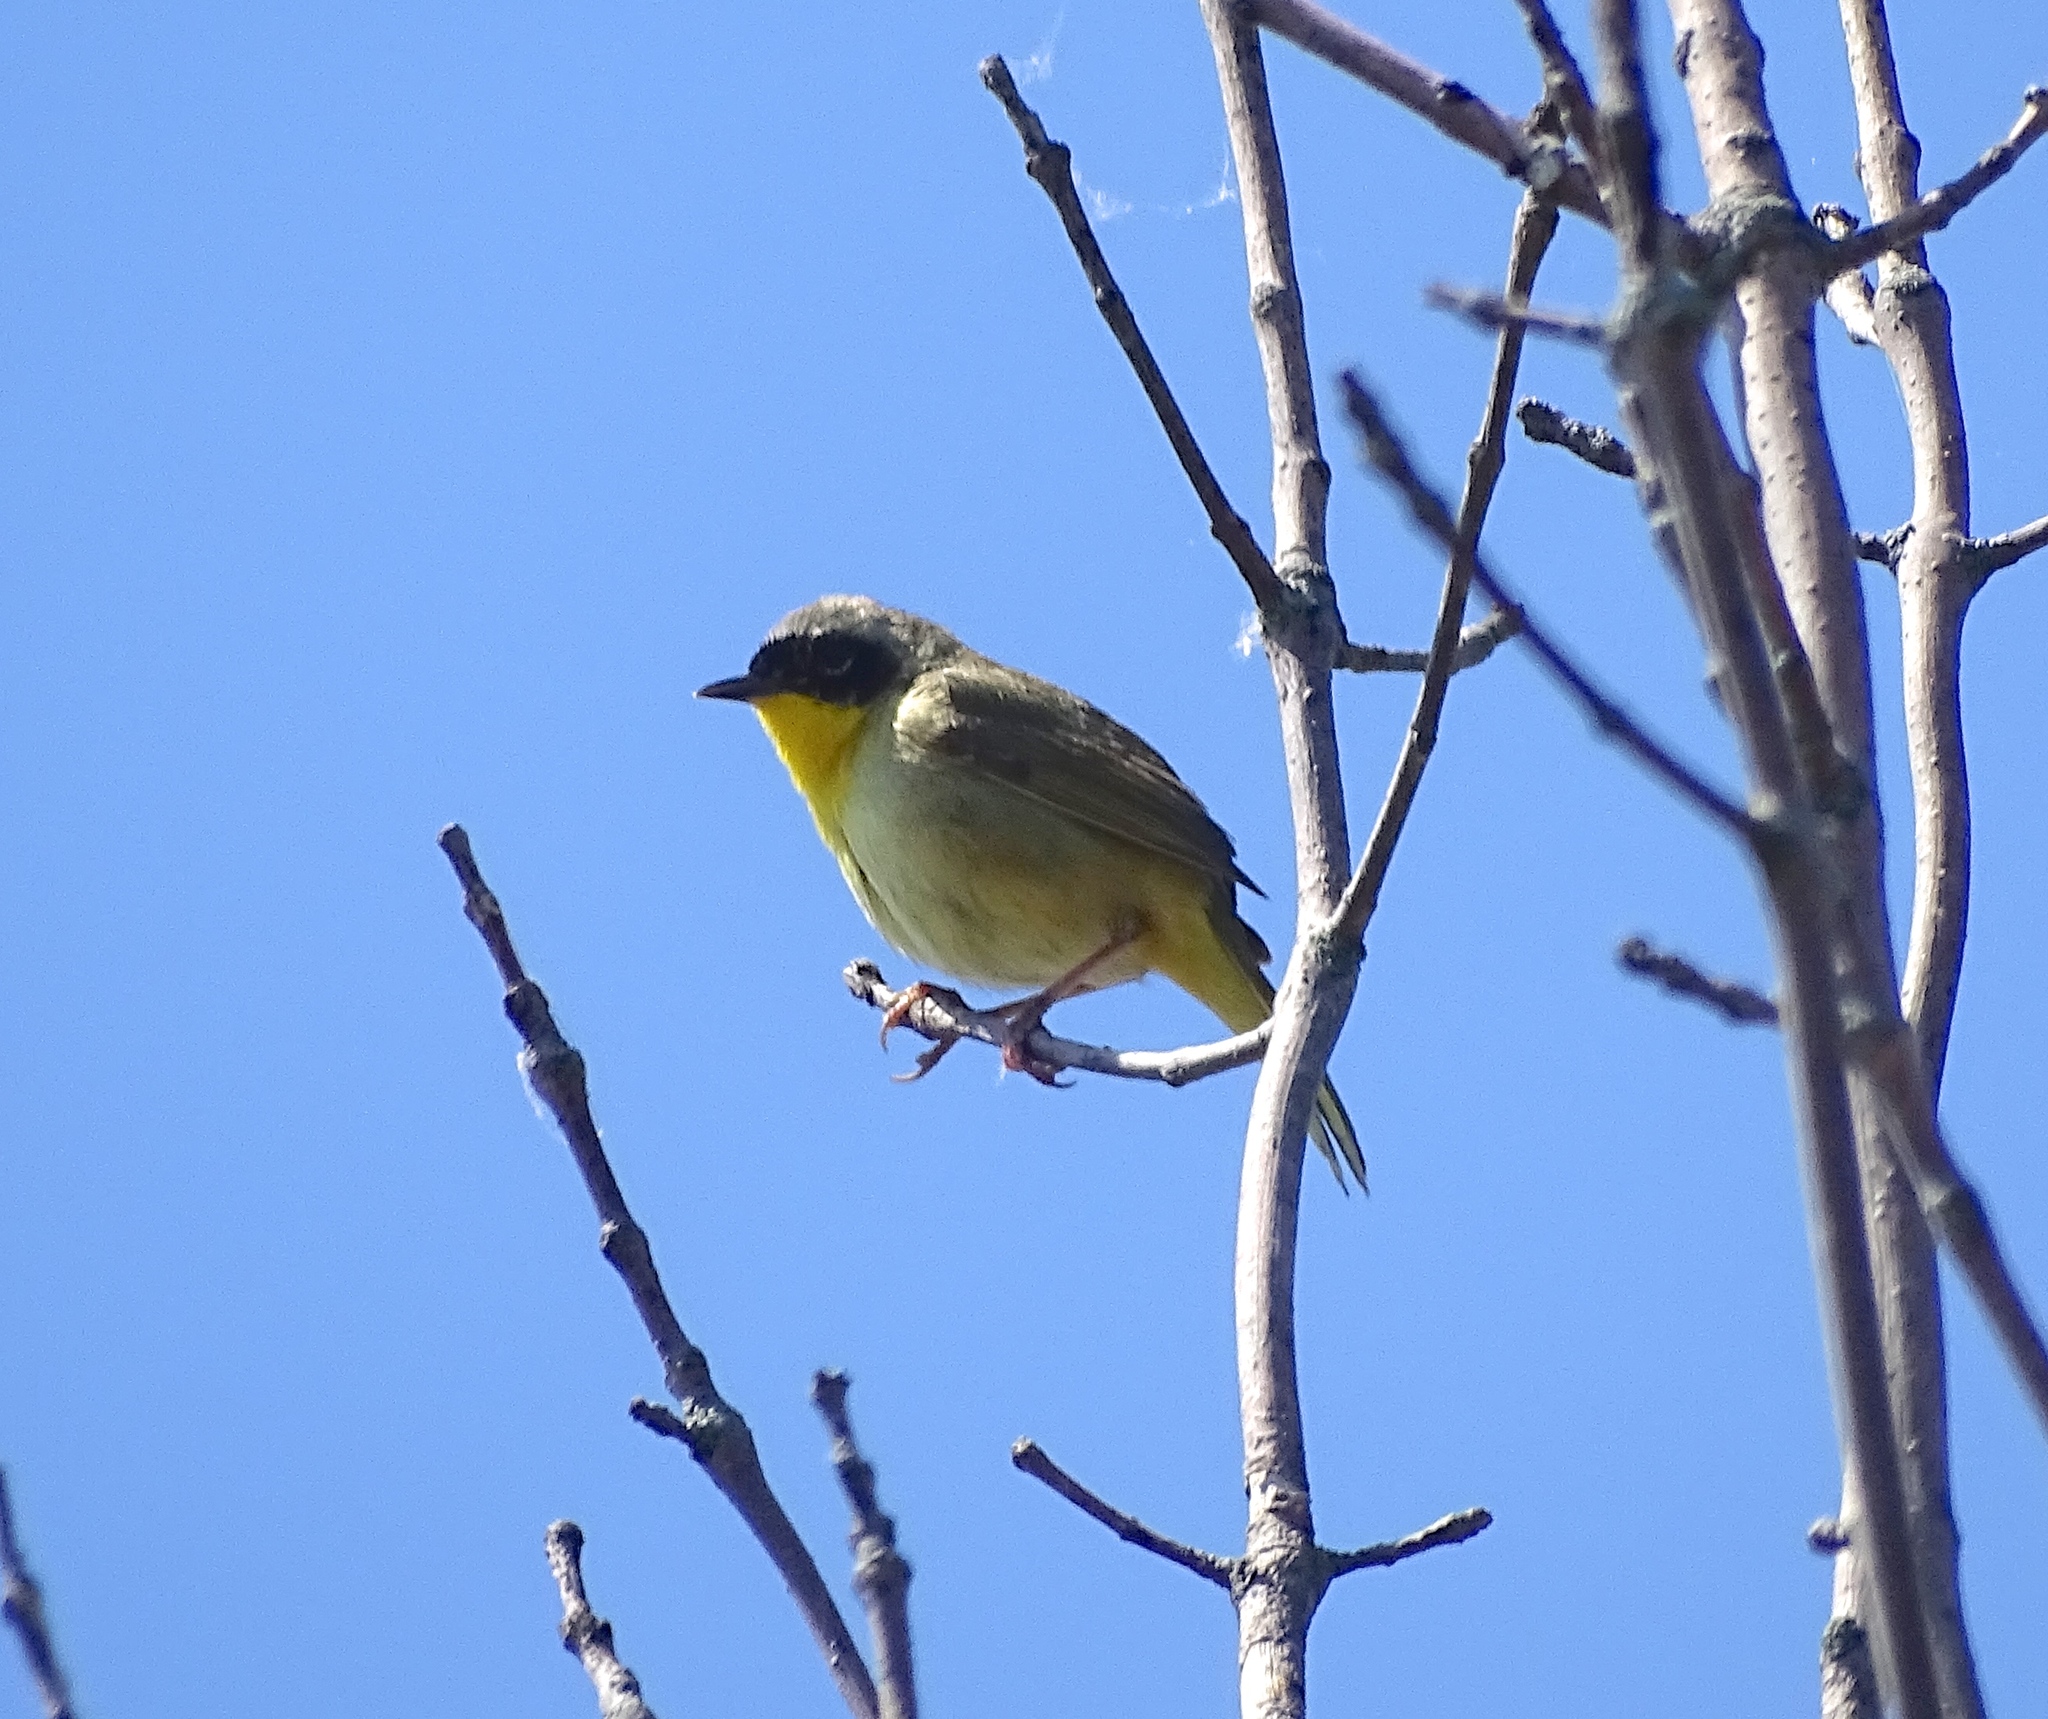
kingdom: Animalia
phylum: Chordata
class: Aves
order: Passeriformes
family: Parulidae
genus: Geothlypis
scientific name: Geothlypis trichas
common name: Common yellowthroat
